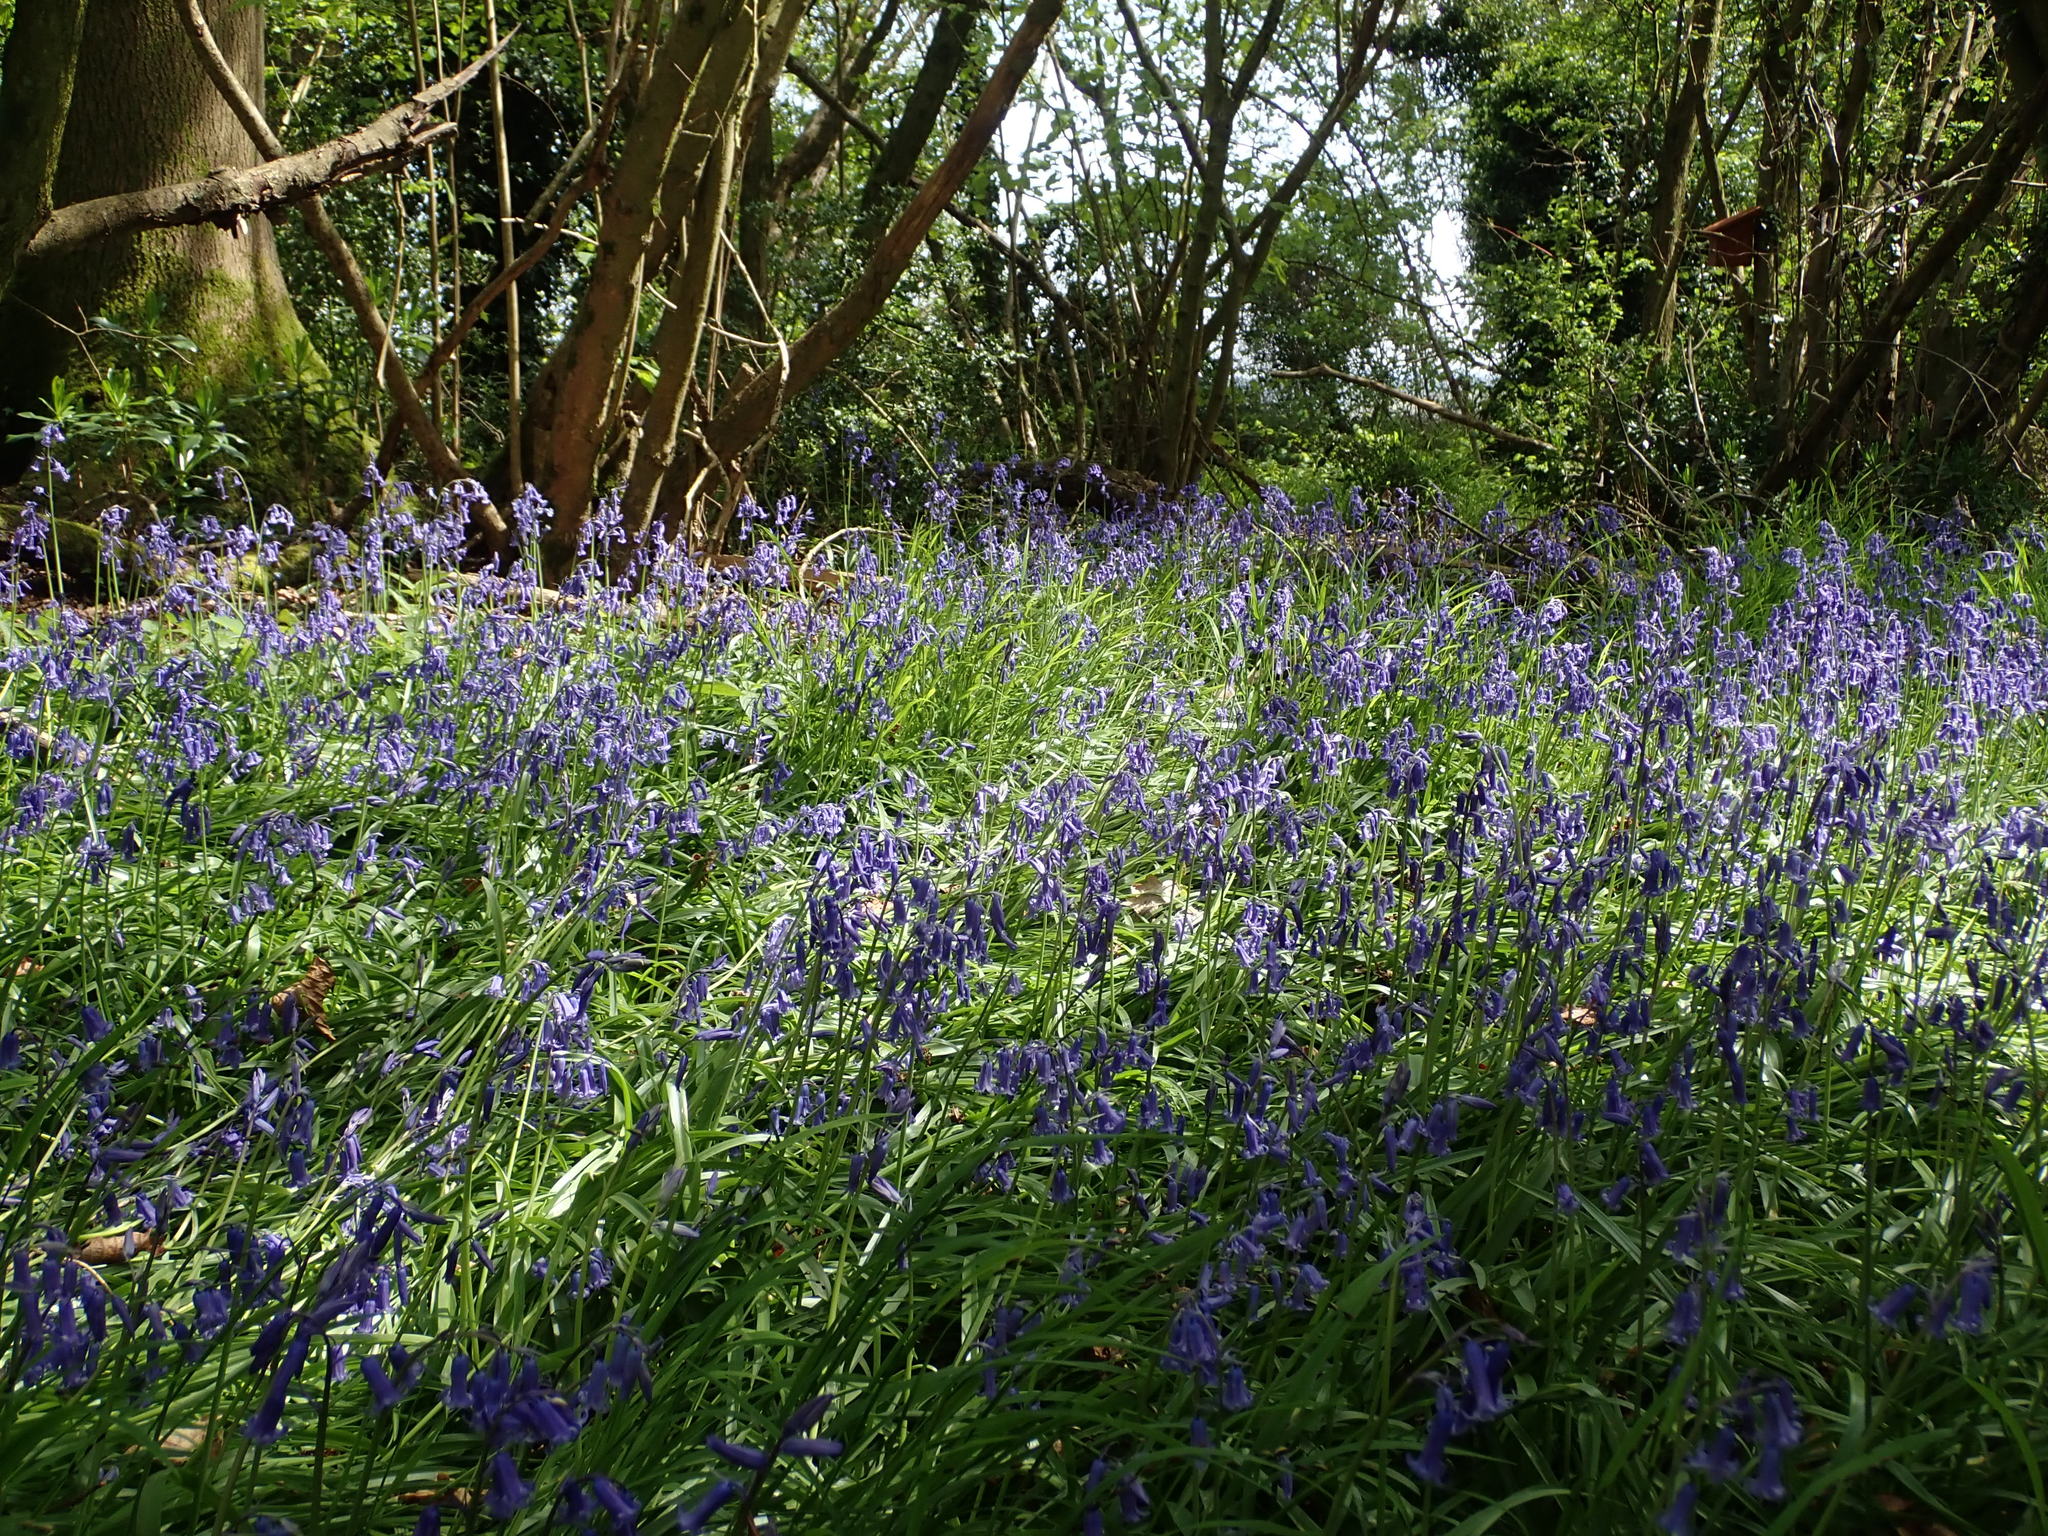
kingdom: Plantae
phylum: Tracheophyta
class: Liliopsida
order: Asparagales
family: Asparagaceae
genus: Hyacinthoides
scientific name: Hyacinthoides non-scripta
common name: Bluebell
